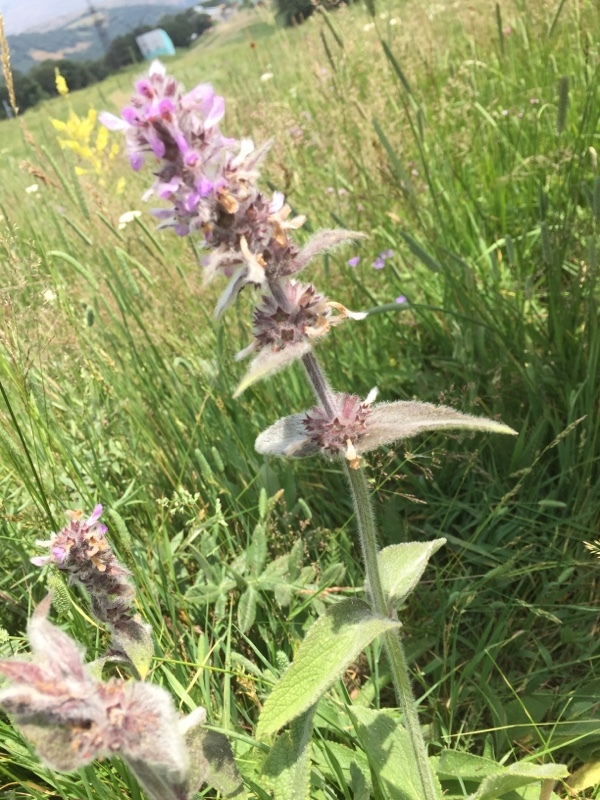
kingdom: Plantae
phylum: Tracheophyta
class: Magnoliopsida
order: Lamiales
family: Lamiaceae
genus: Stachys
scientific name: Stachys germanica
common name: Downy woundwort
